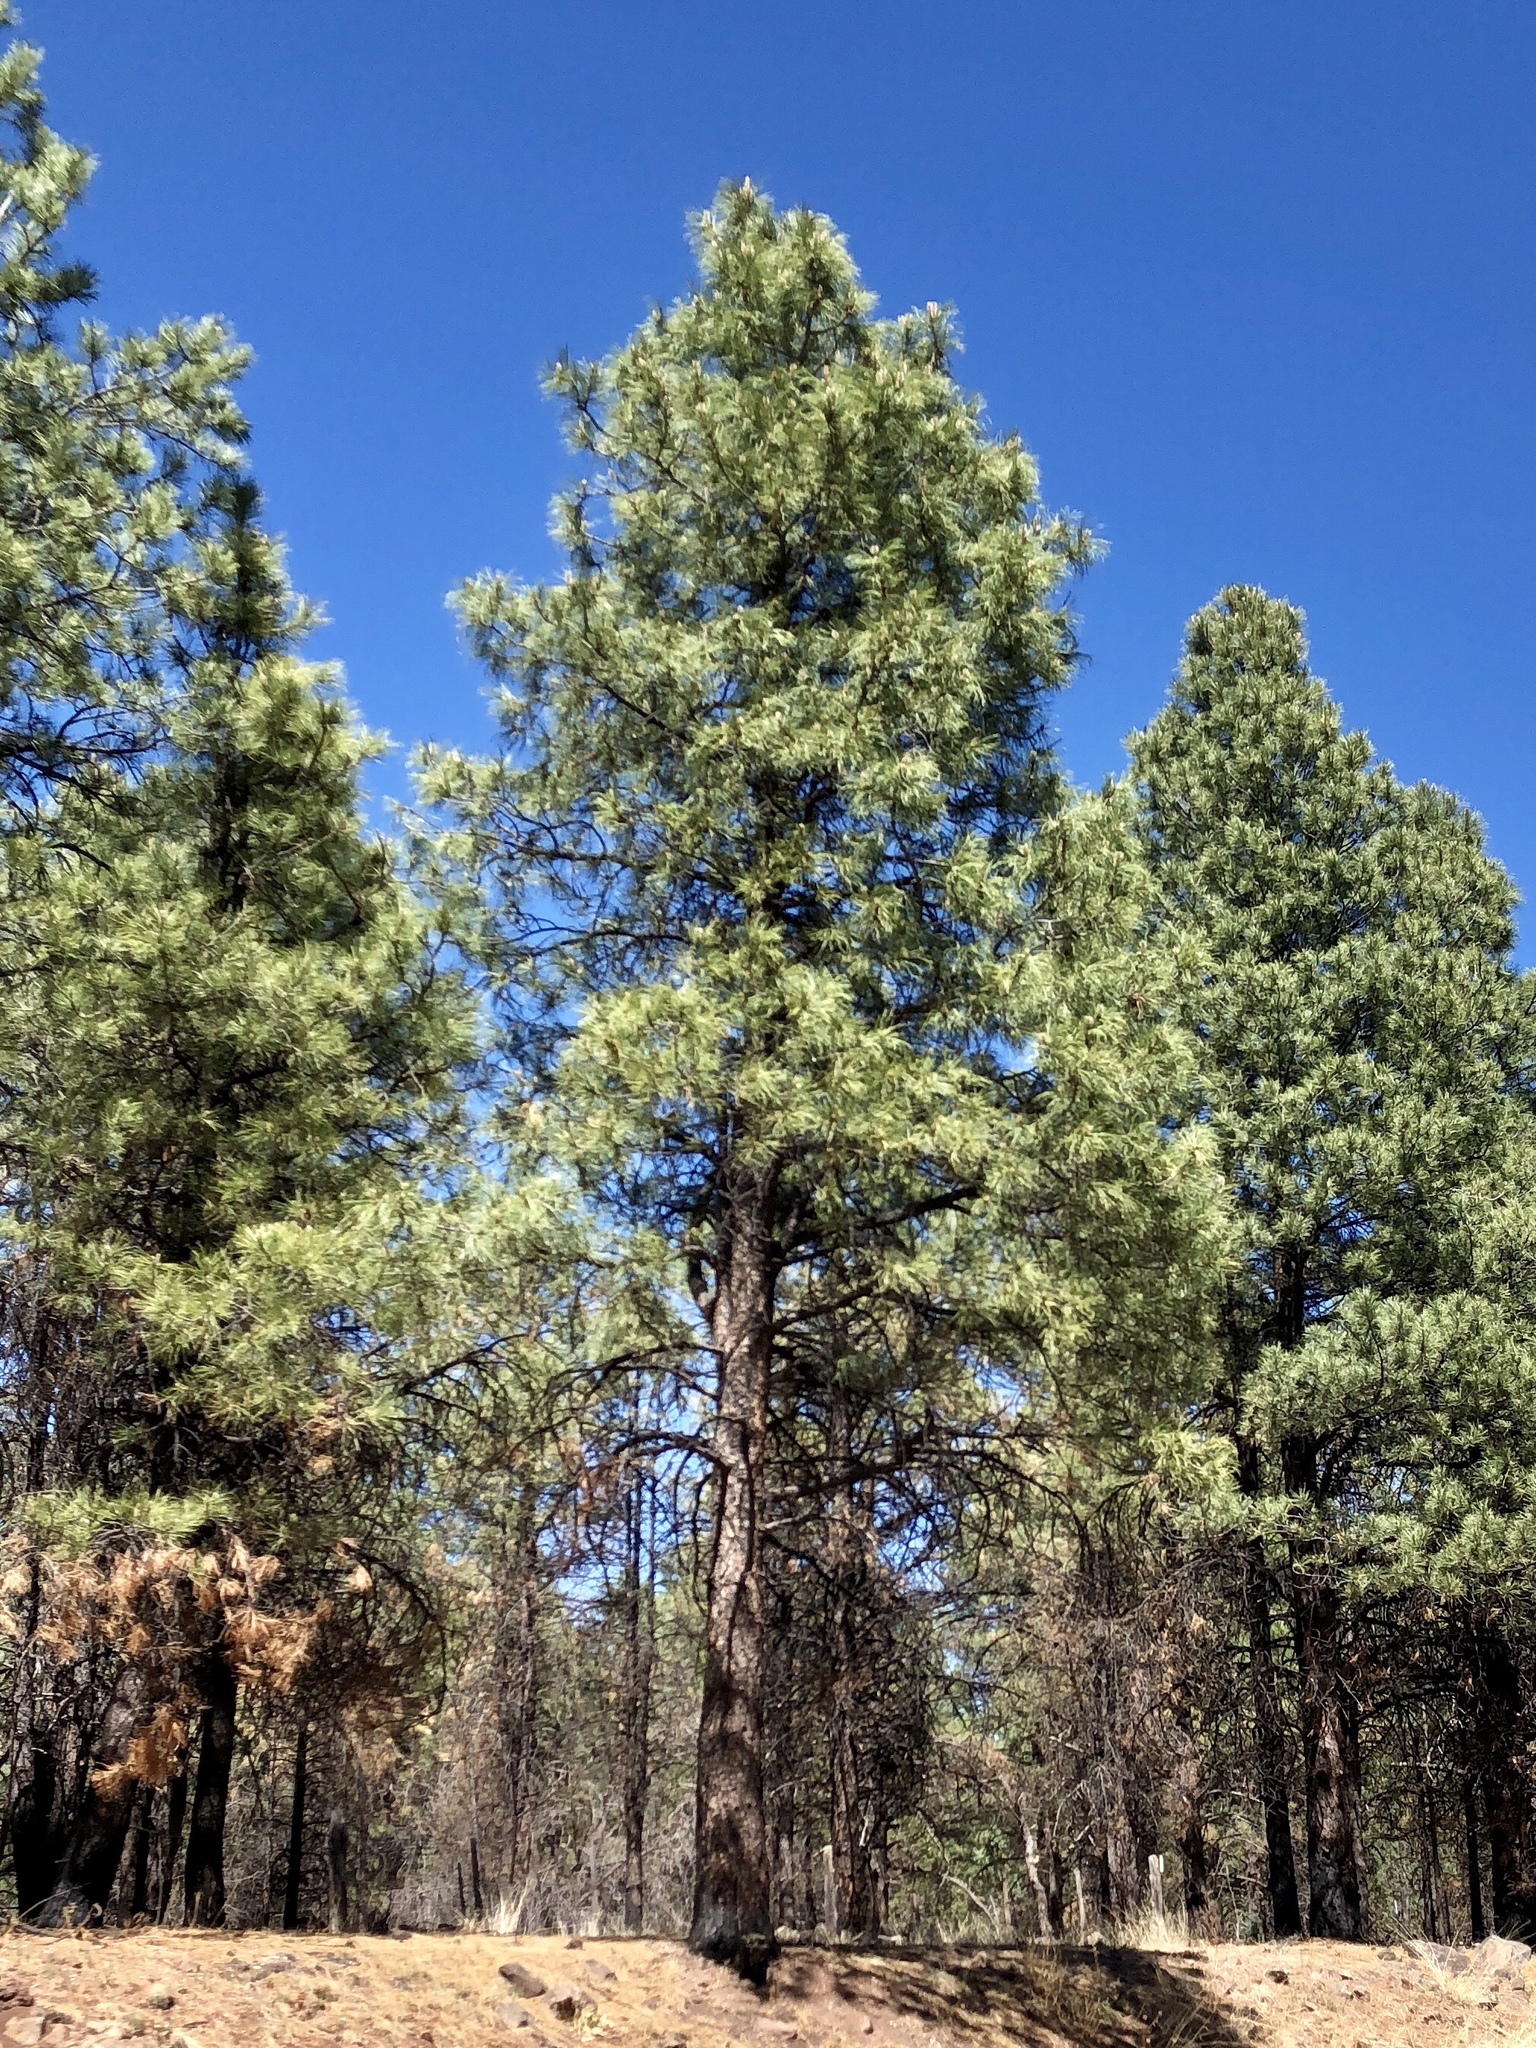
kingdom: Plantae
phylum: Tracheophyta
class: Pinopsida
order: Pinales
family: Pinaceae
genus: Pinus
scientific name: Pinus ponderosa
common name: Western yellow-pine
